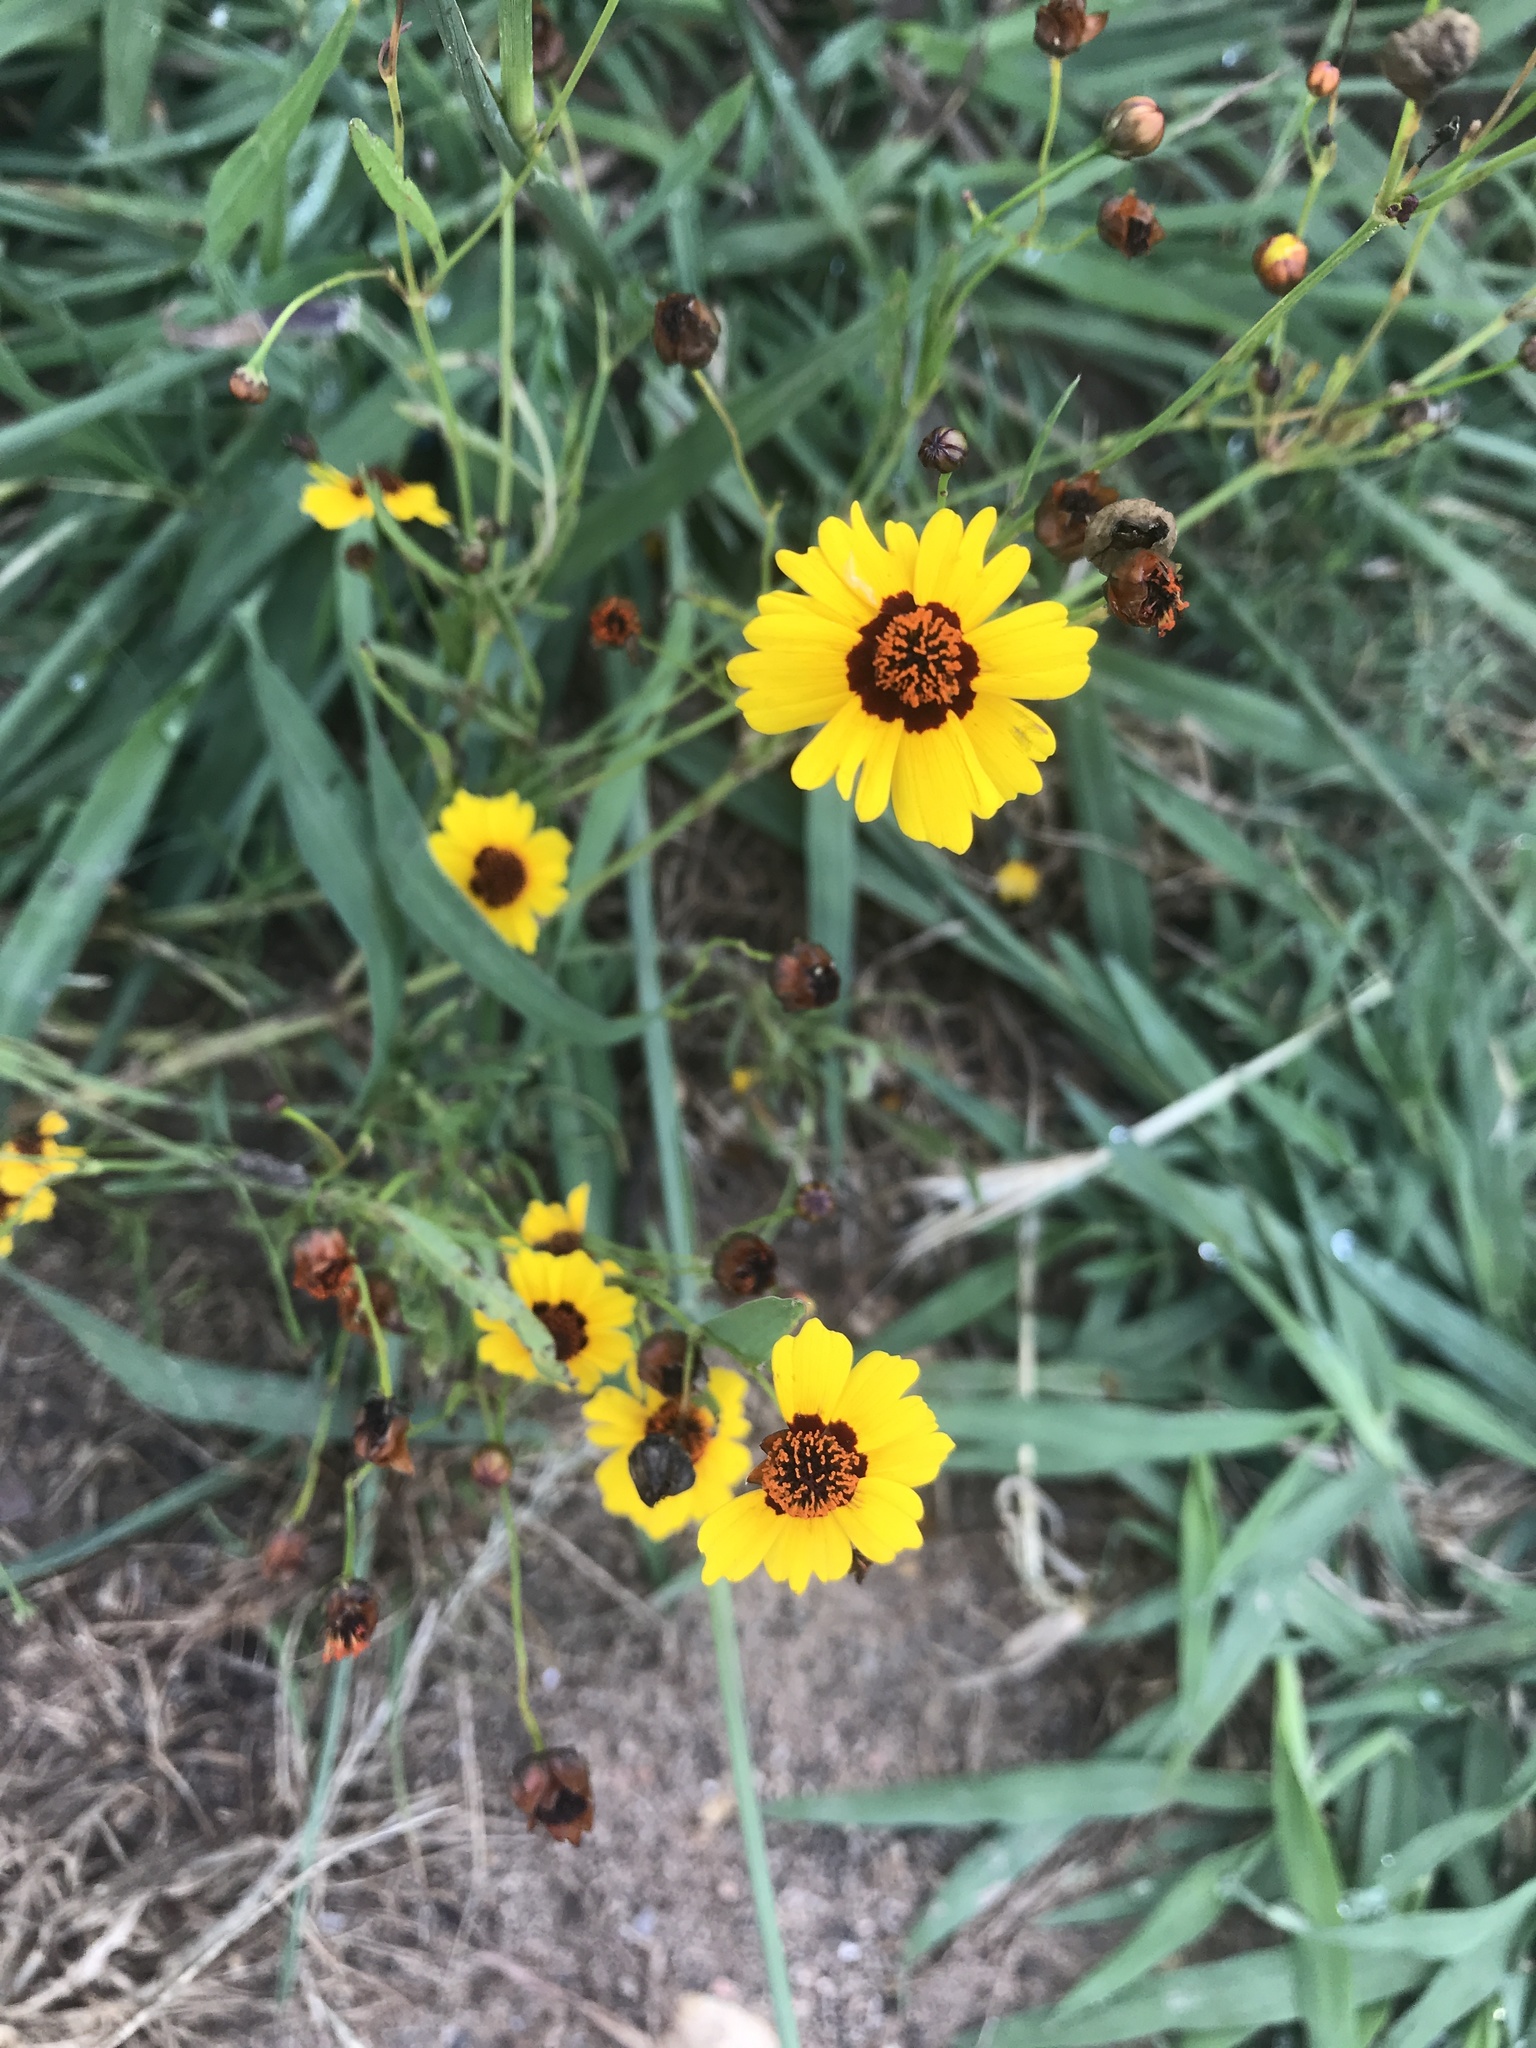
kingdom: Plantae
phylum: Tracheophyta
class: Magnoliopsida
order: Asterales
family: Asteraceae
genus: Coreopsis
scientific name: Coreopsis tinctoria
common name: Garden tickseed
